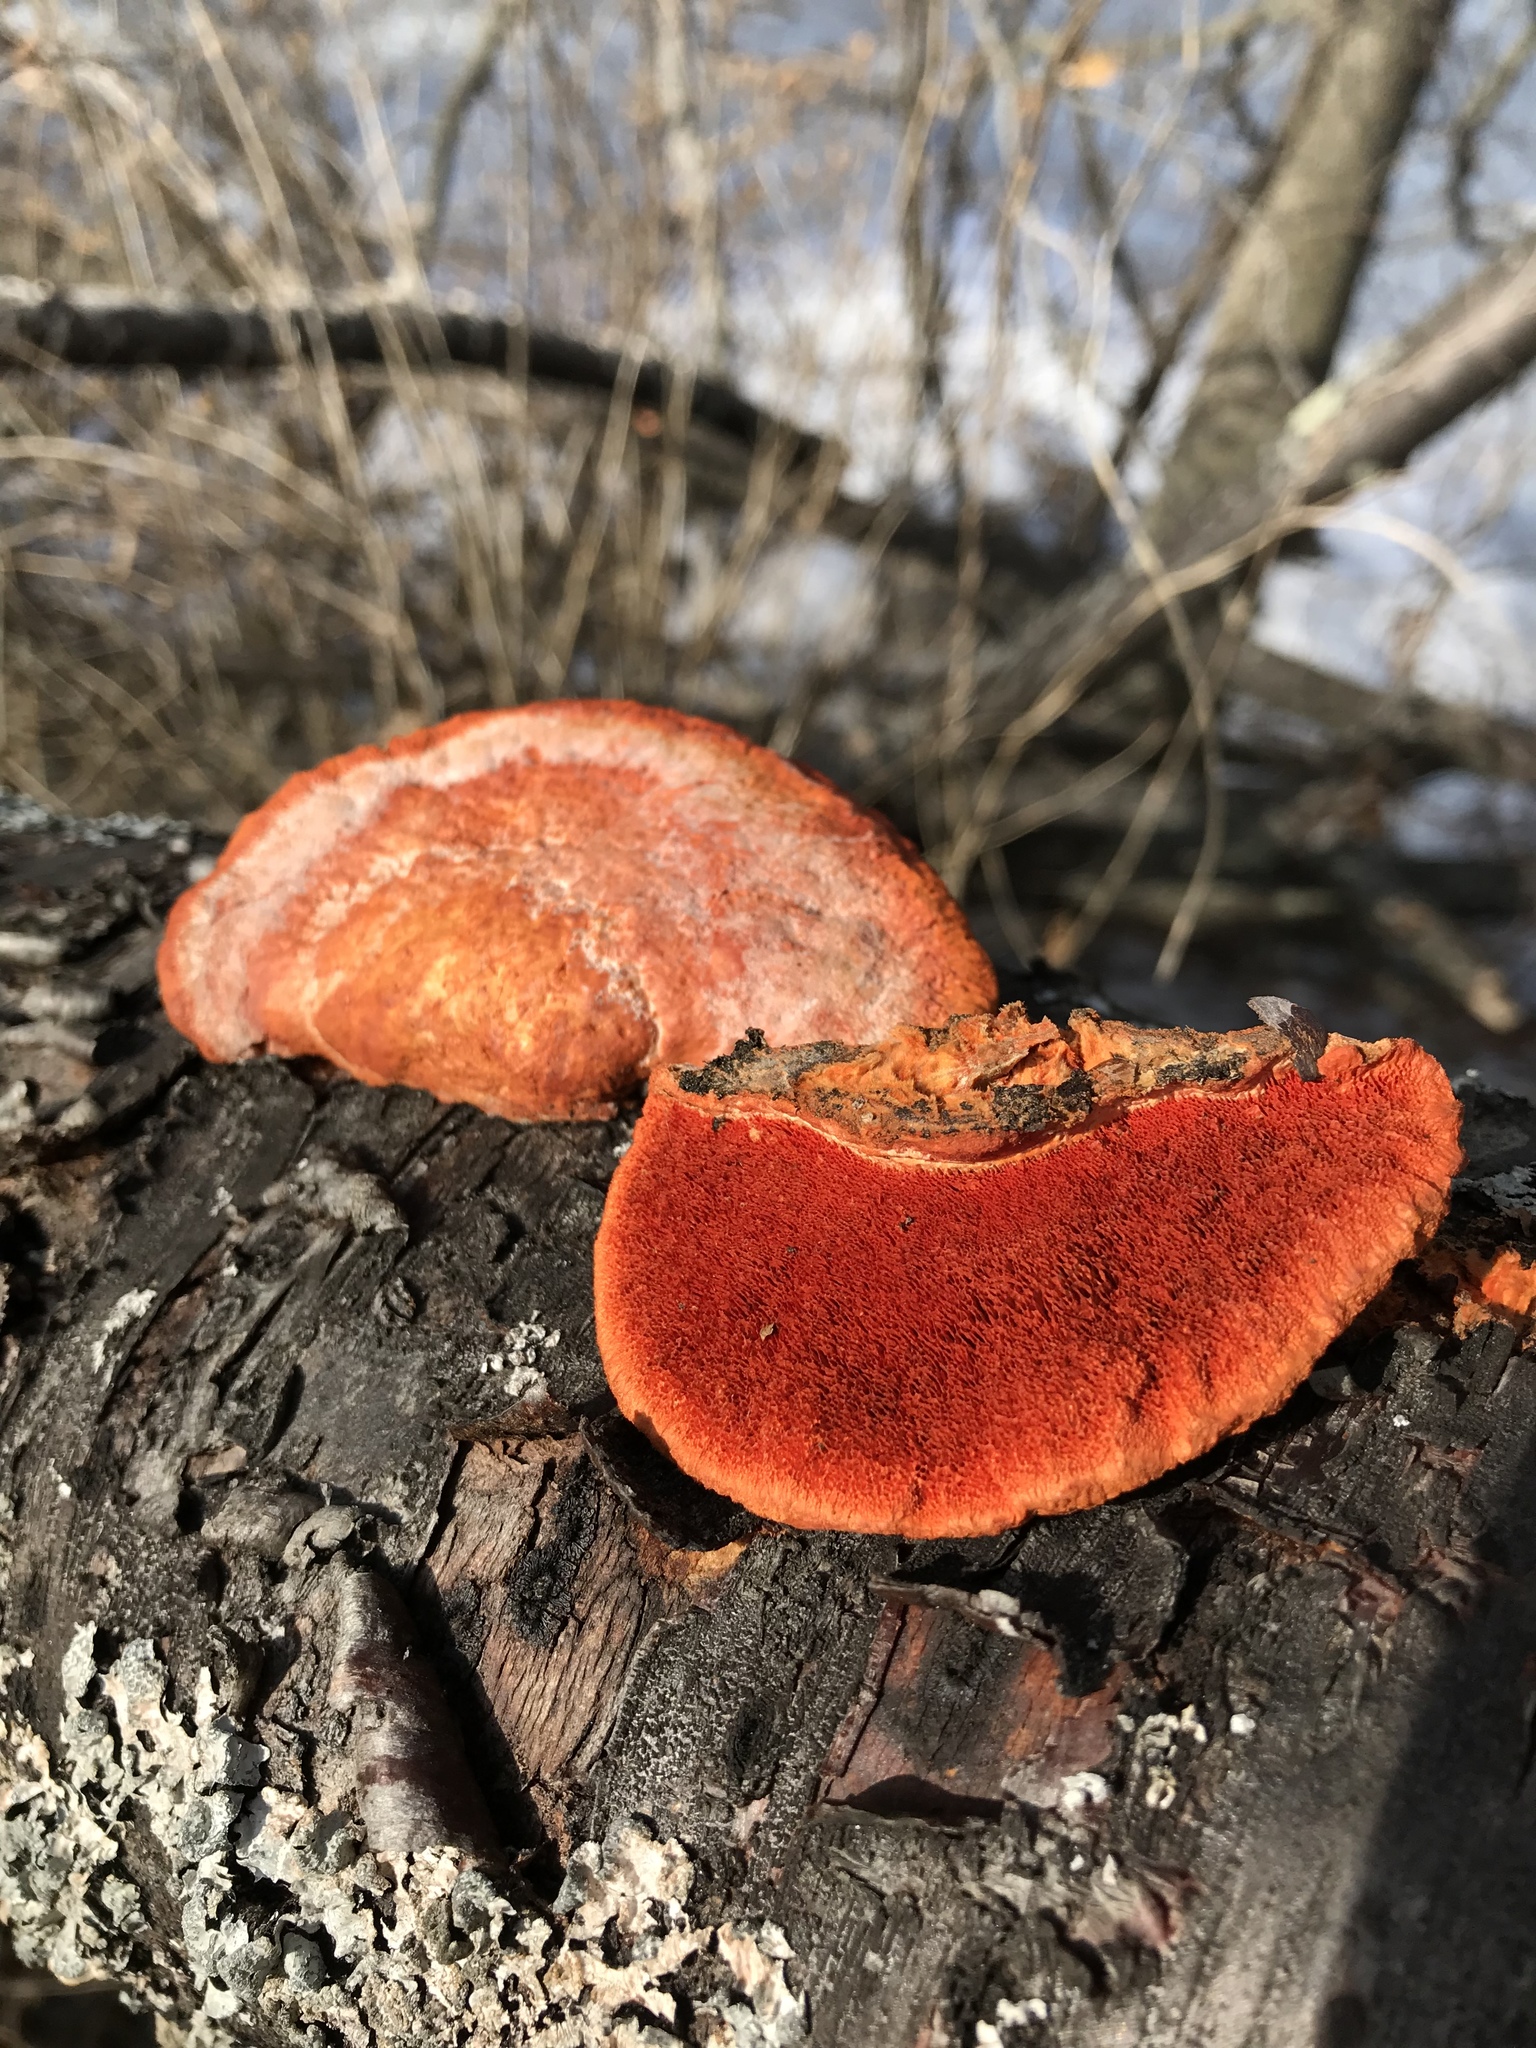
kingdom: Fungi
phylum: Basidiomycota
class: Agaricomycetes
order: Polyporales
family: Polyporaceae
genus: Trametes
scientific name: Trametes cinnabarina
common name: Northern cinnabar polypore
